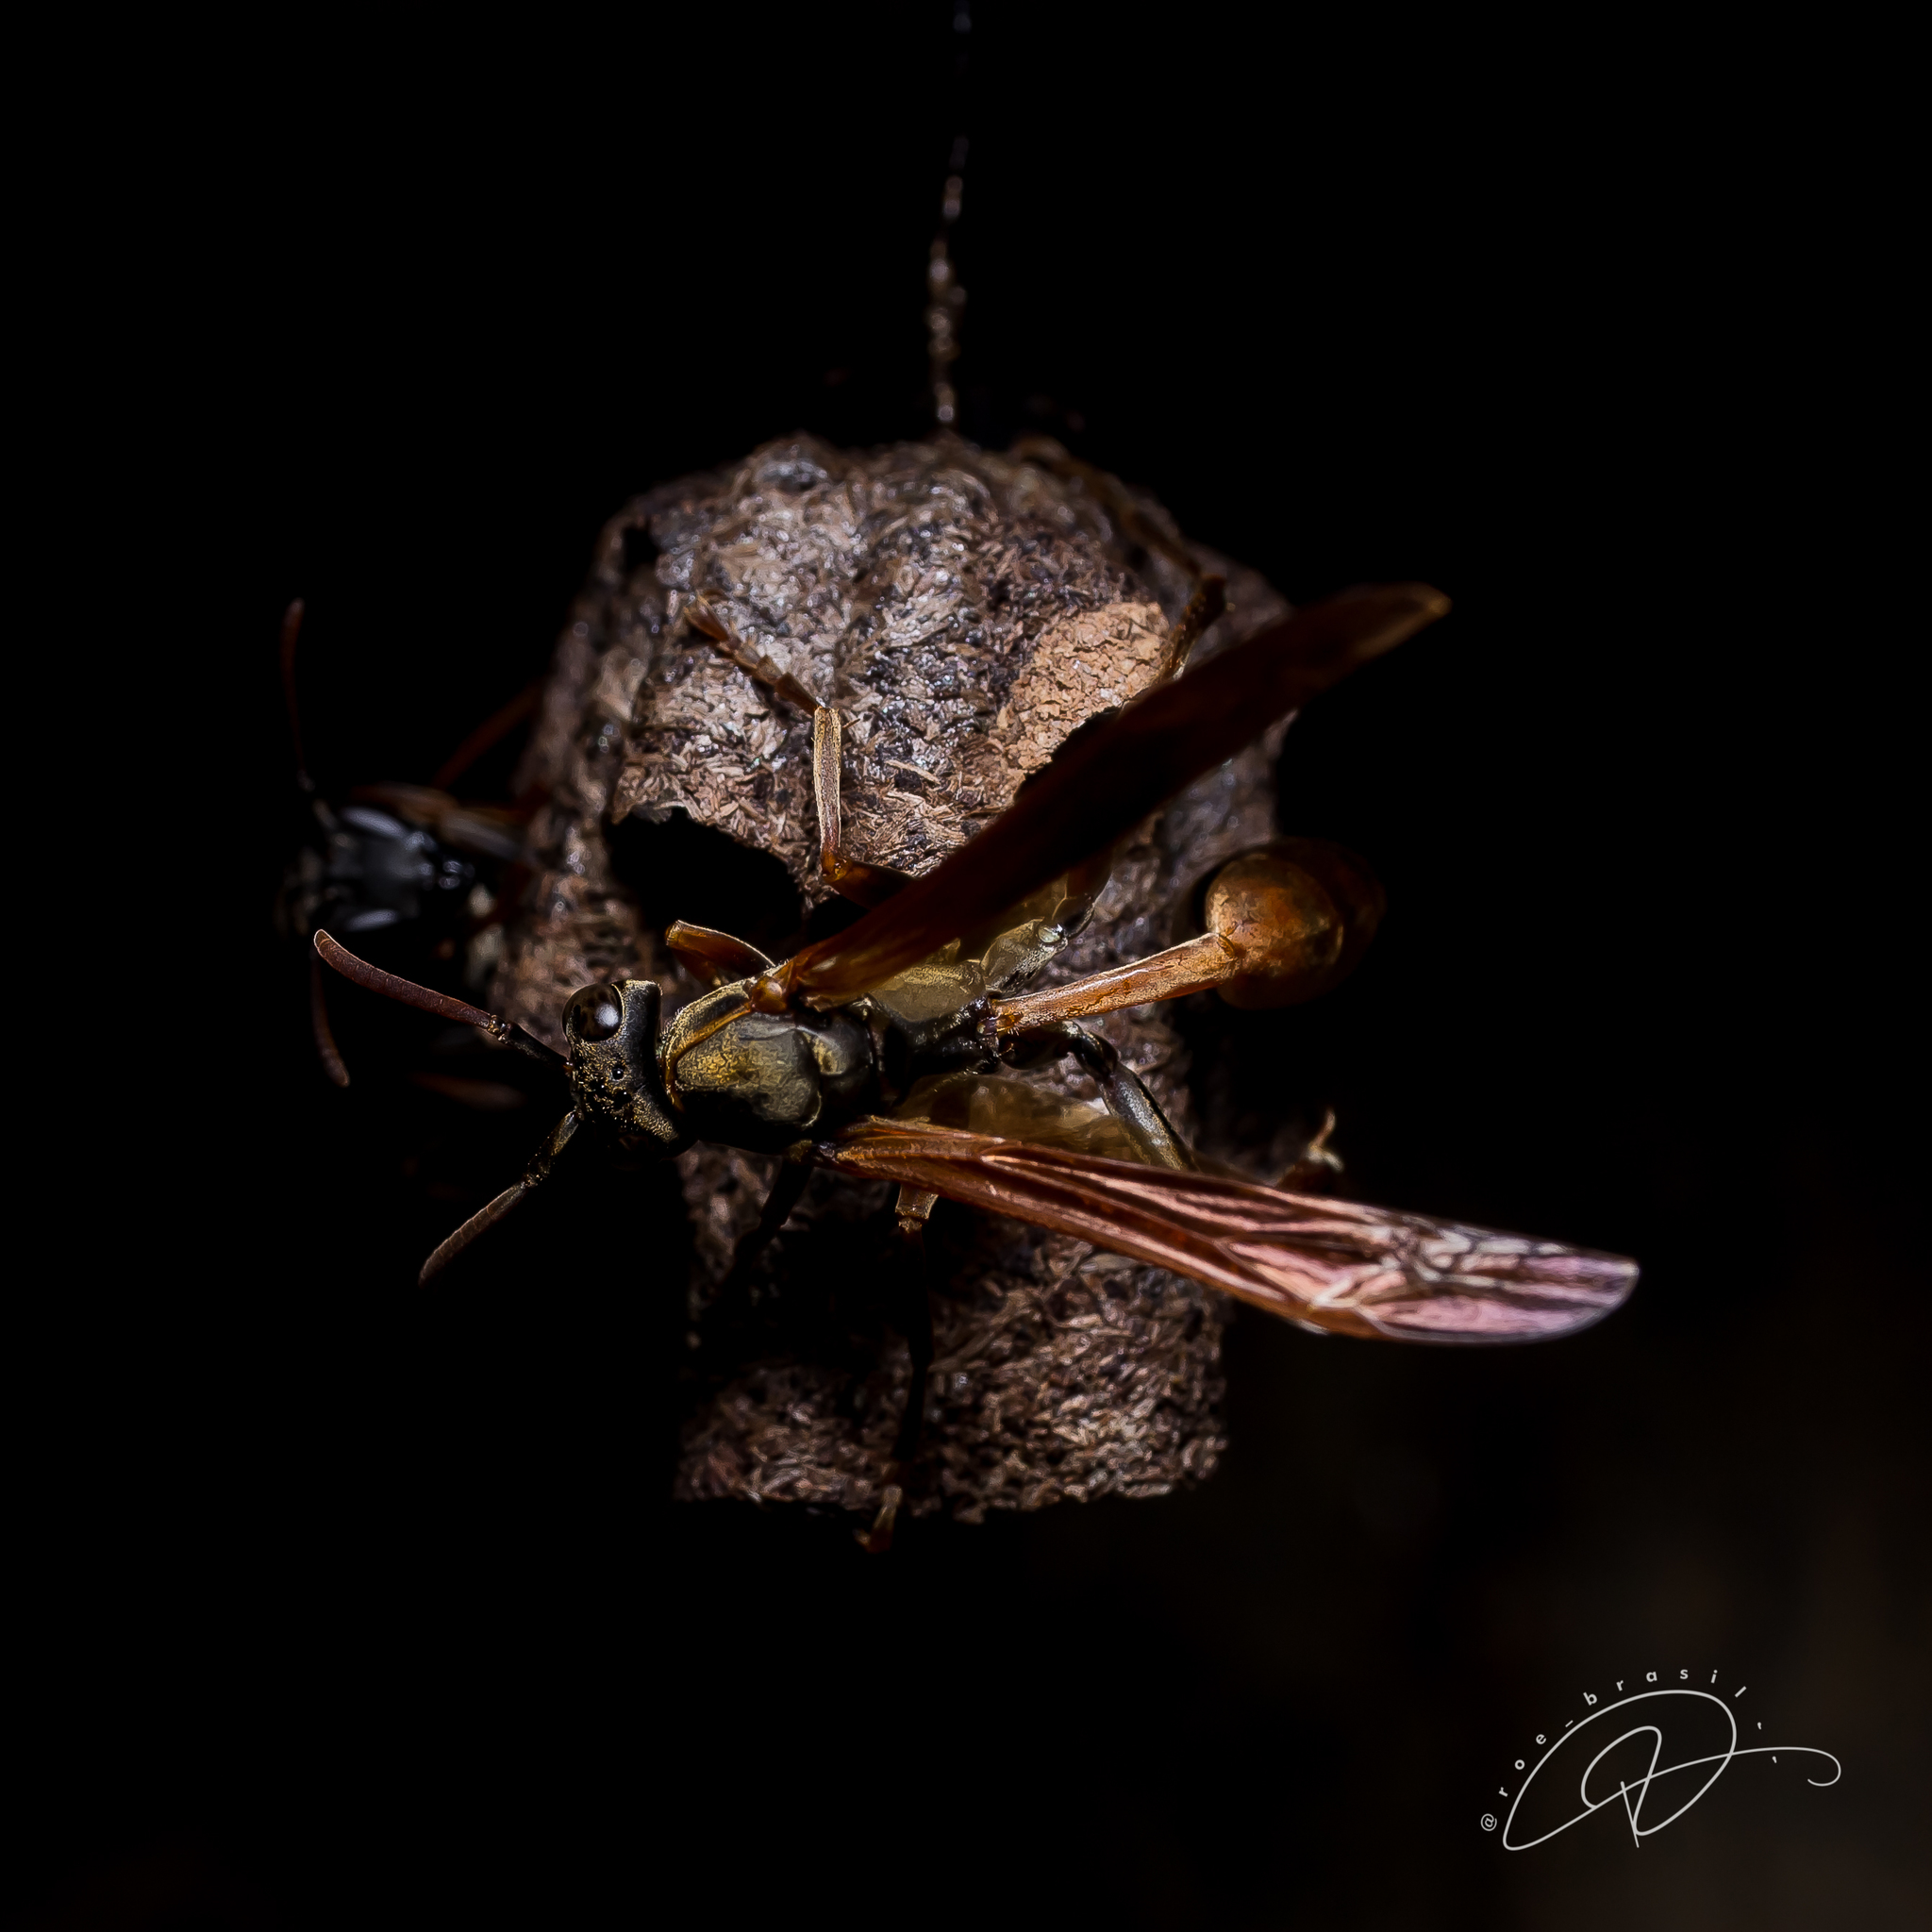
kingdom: Animalia
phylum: Arthropoda
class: Insecta
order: Hymenoptera
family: Vespidae
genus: Mischocyttarus
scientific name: Mischocyttarus drewseni
